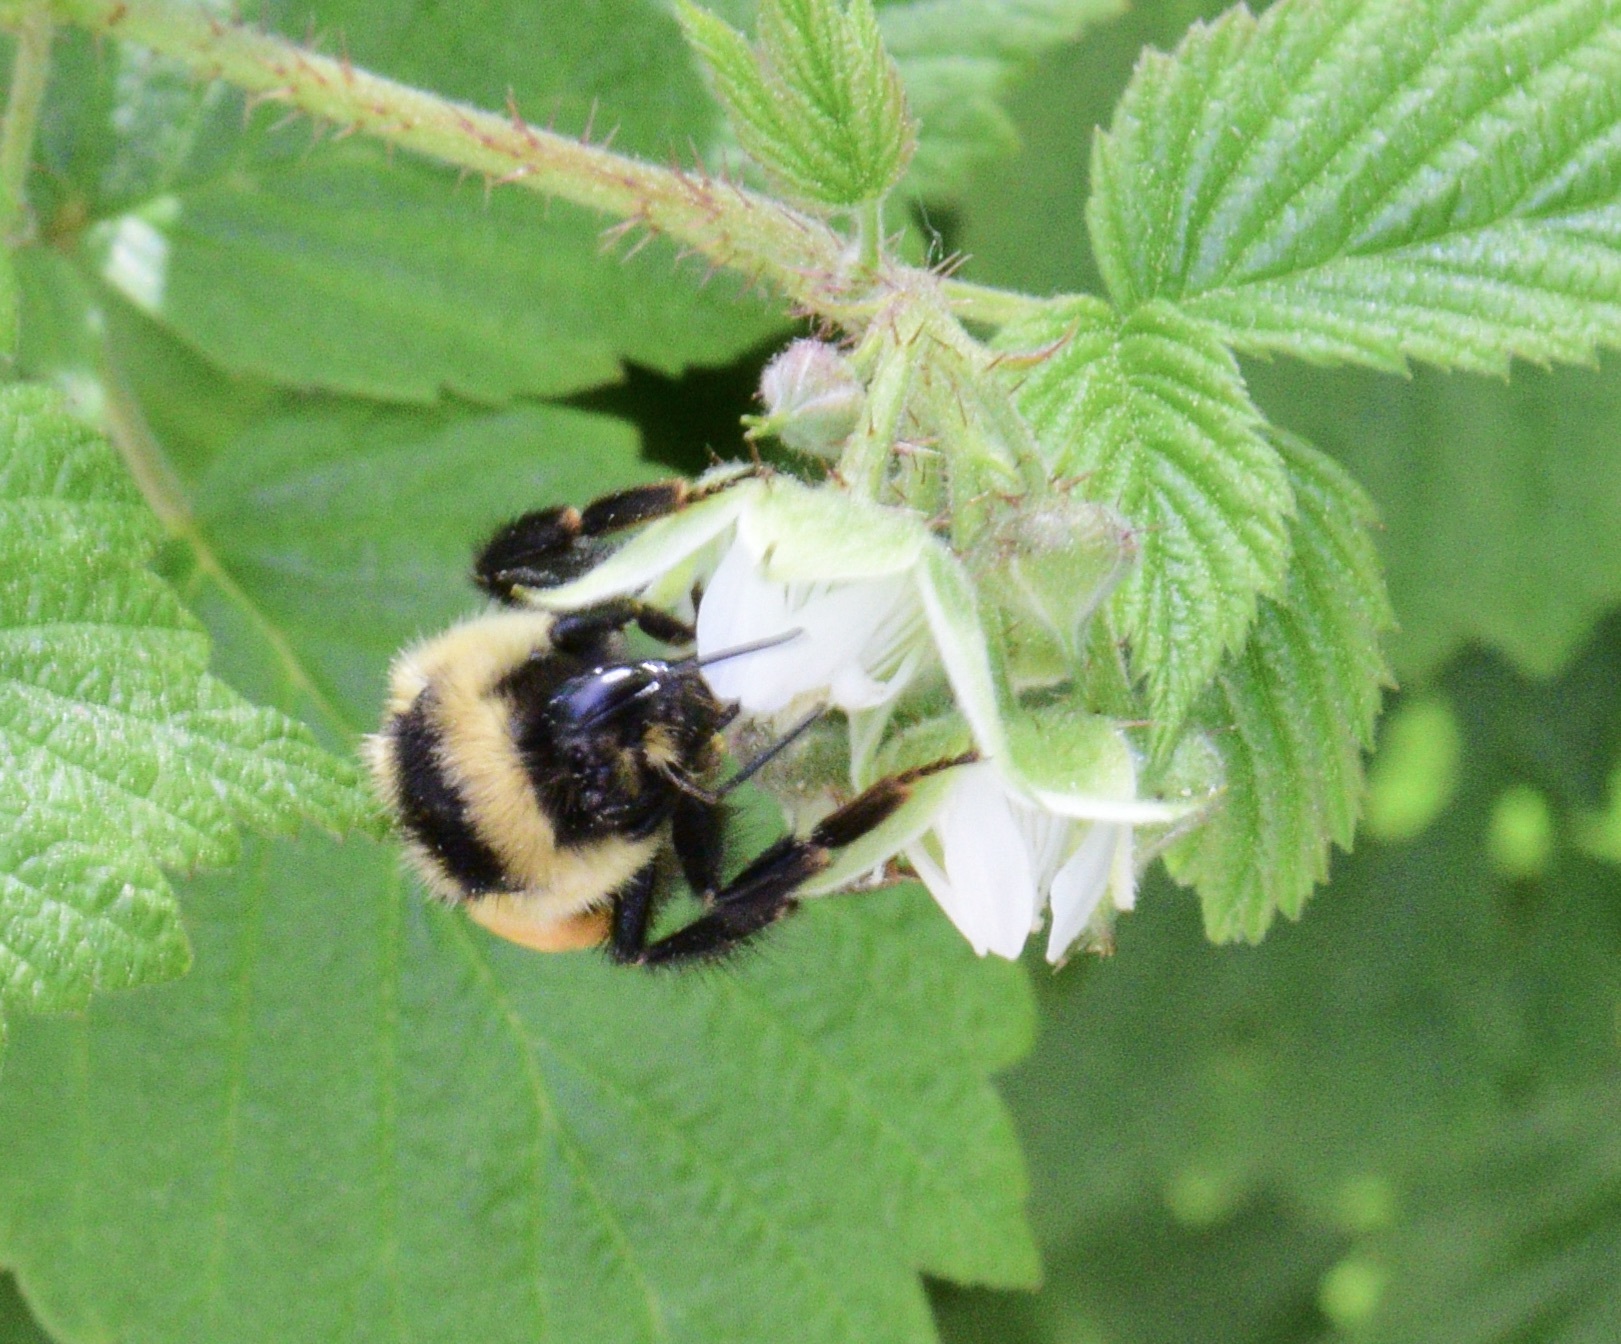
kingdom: Animalia
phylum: Arthropoda
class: Insecta
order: Hymenoptera
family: Apidae
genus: Bombus
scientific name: Bombus ternarius
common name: Tri-colored bumble bee
